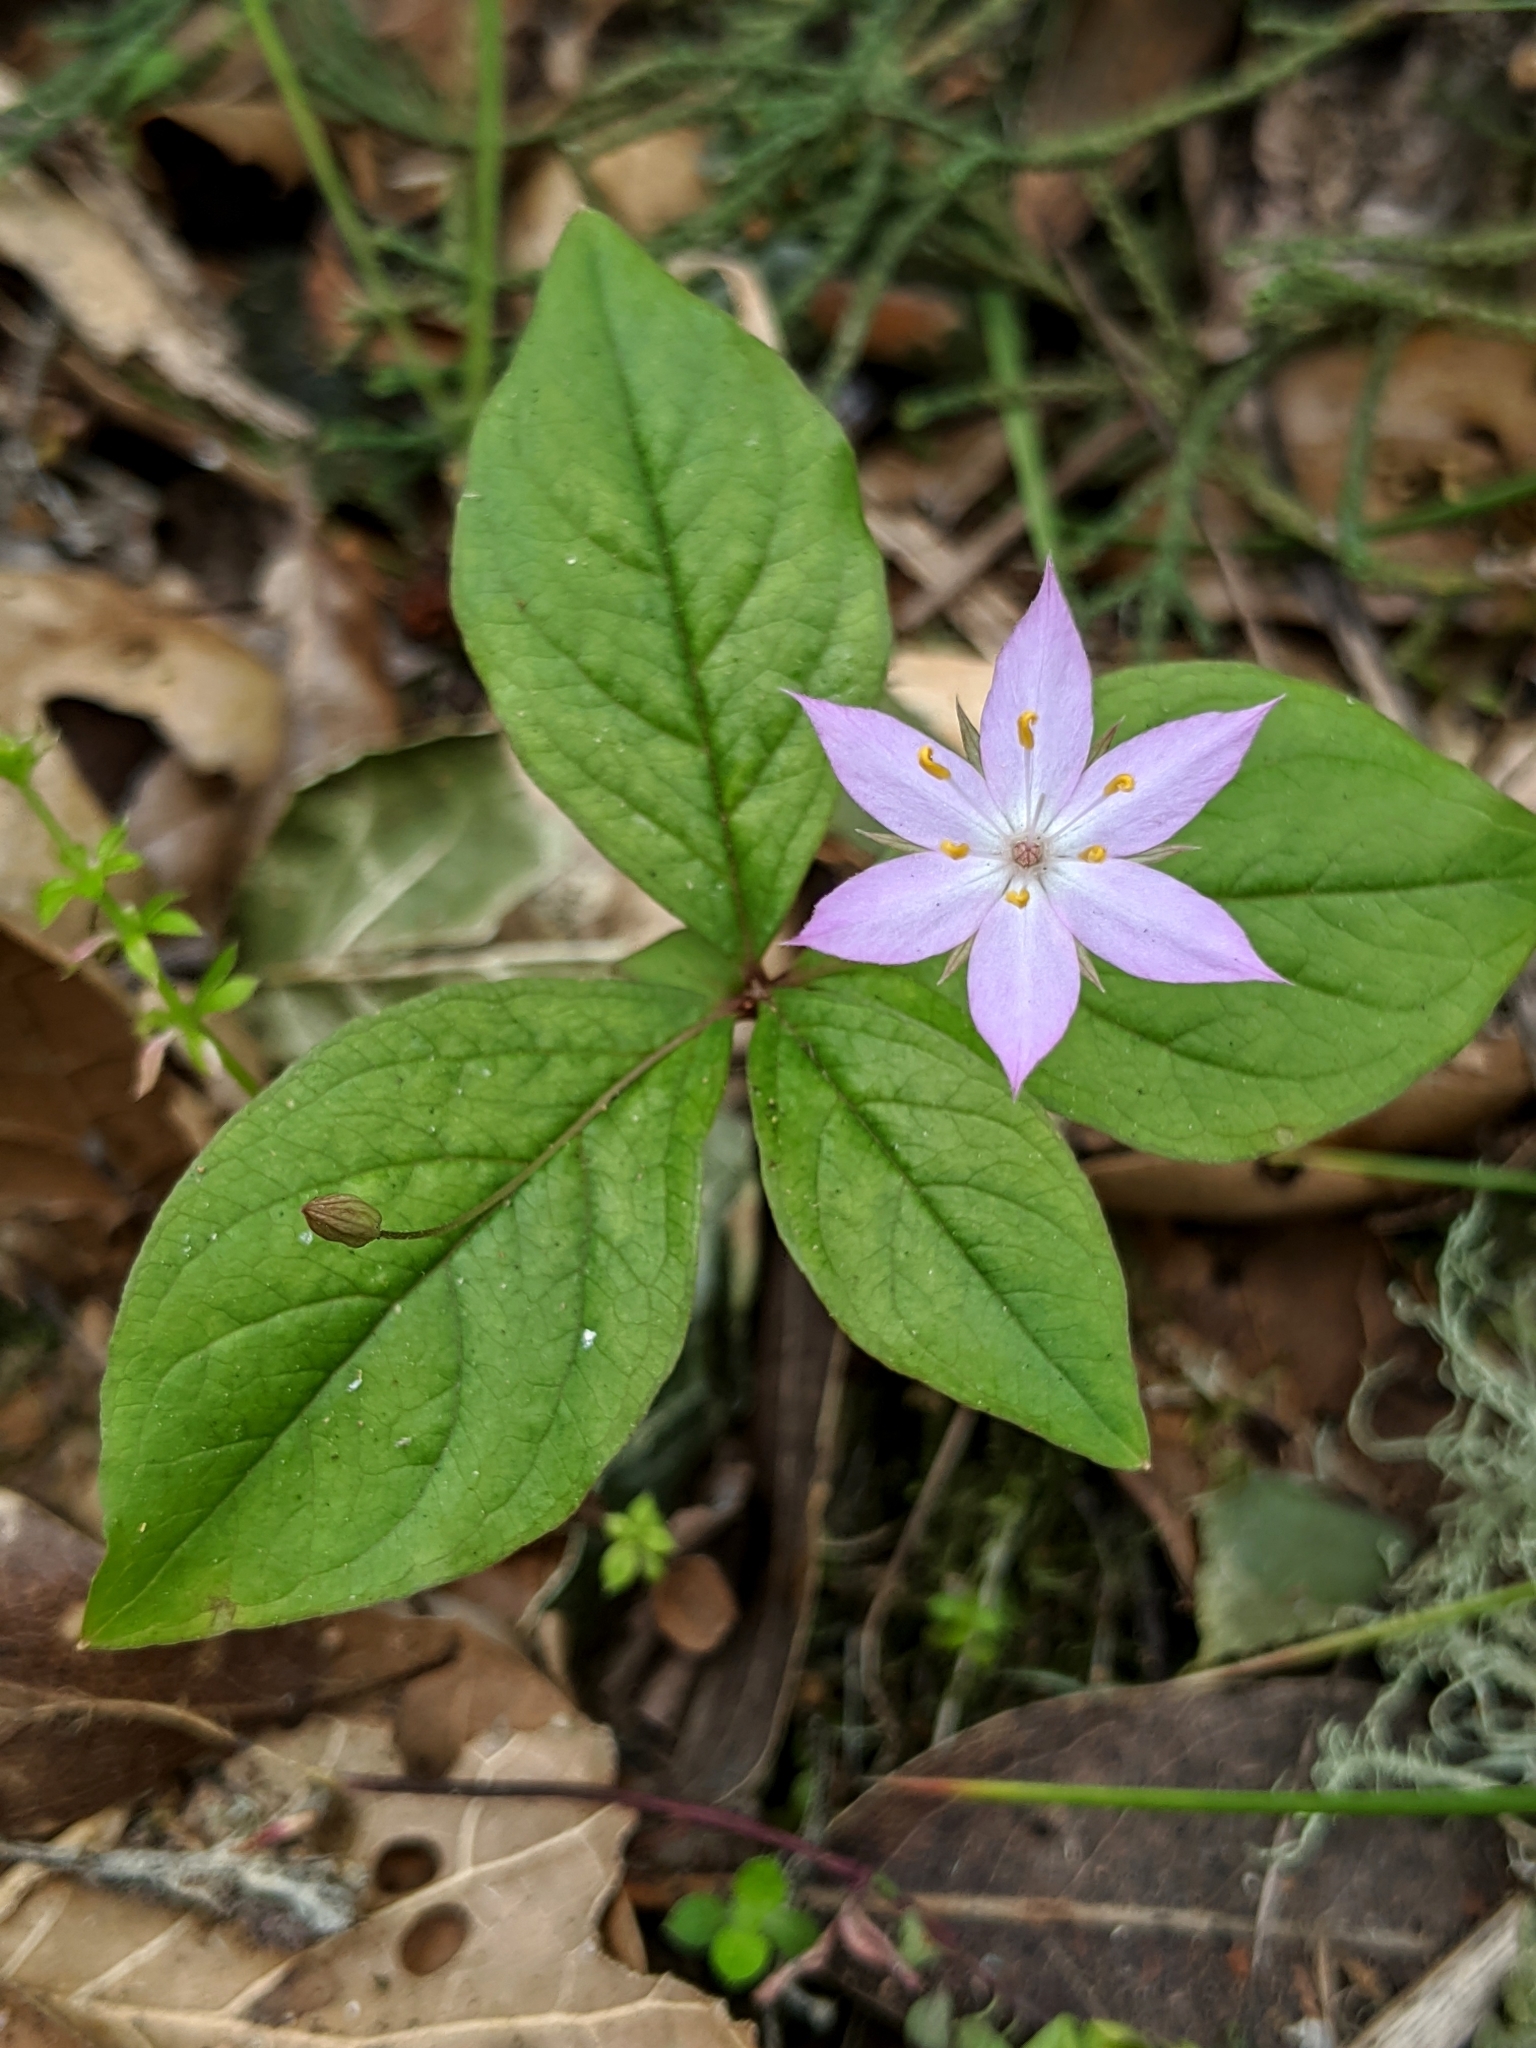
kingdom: Plantae
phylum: Tracheophyta
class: Magnoliopsida
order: Ericales
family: Primulaceae
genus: Lysimachia
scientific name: Lysimachia latifolia
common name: Pacific starflower
